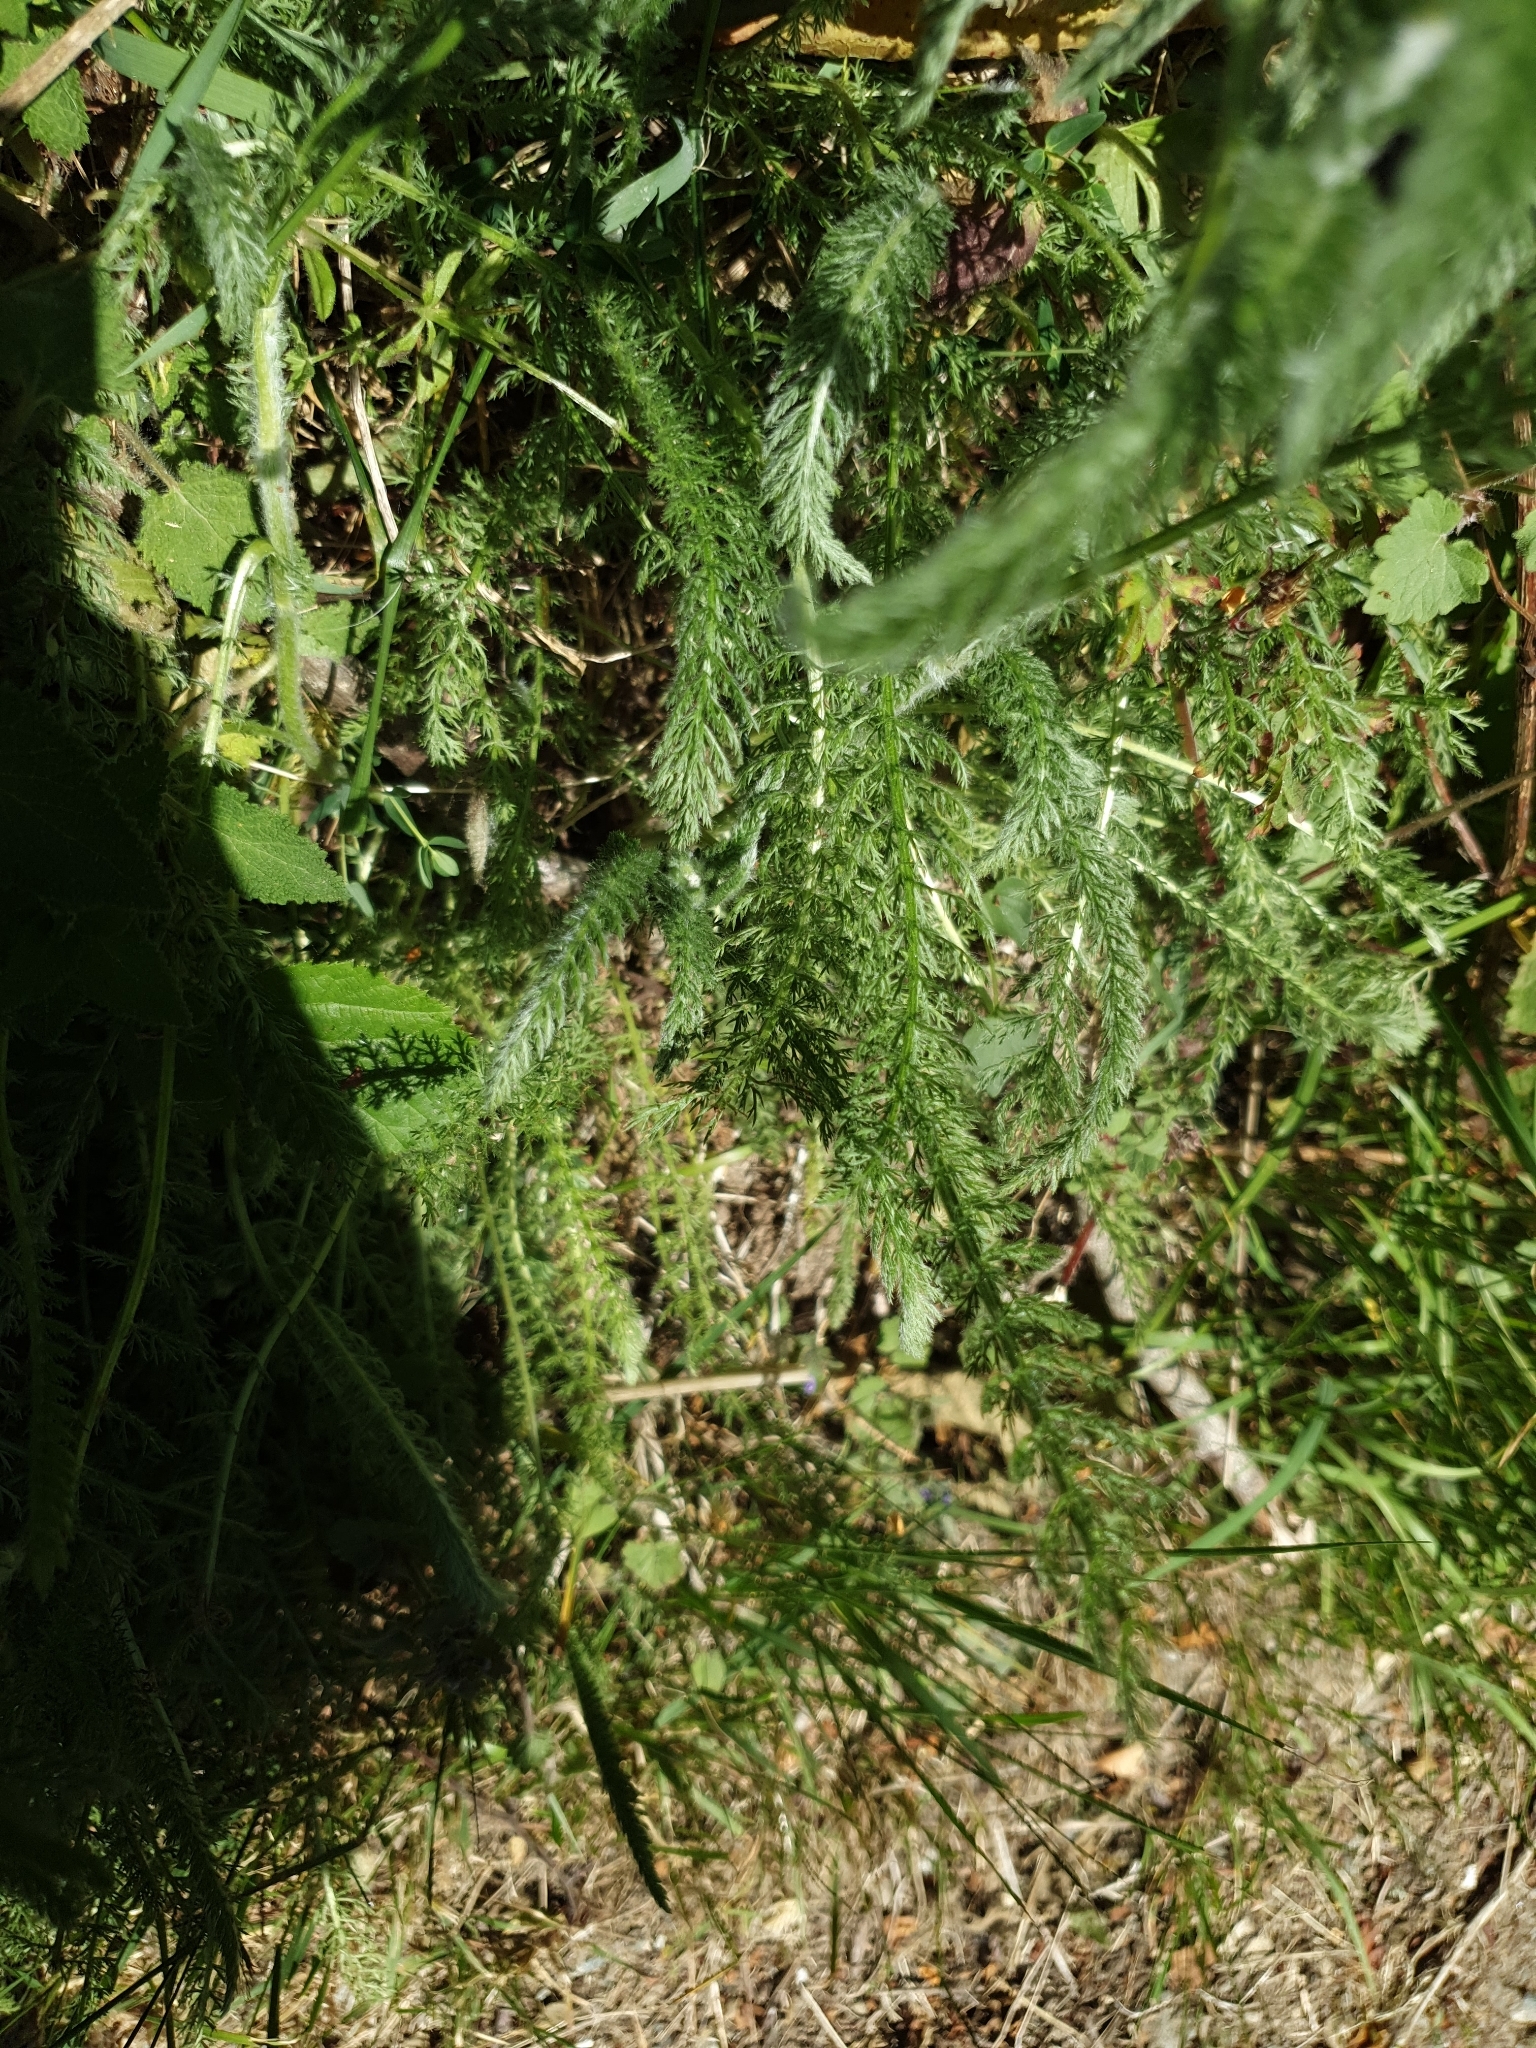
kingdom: Plantae
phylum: Tracheophyta
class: Magnoliopsida
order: Asterales
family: Asteraceae
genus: Achillea
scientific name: Achillea millefolium
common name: Yarrow
